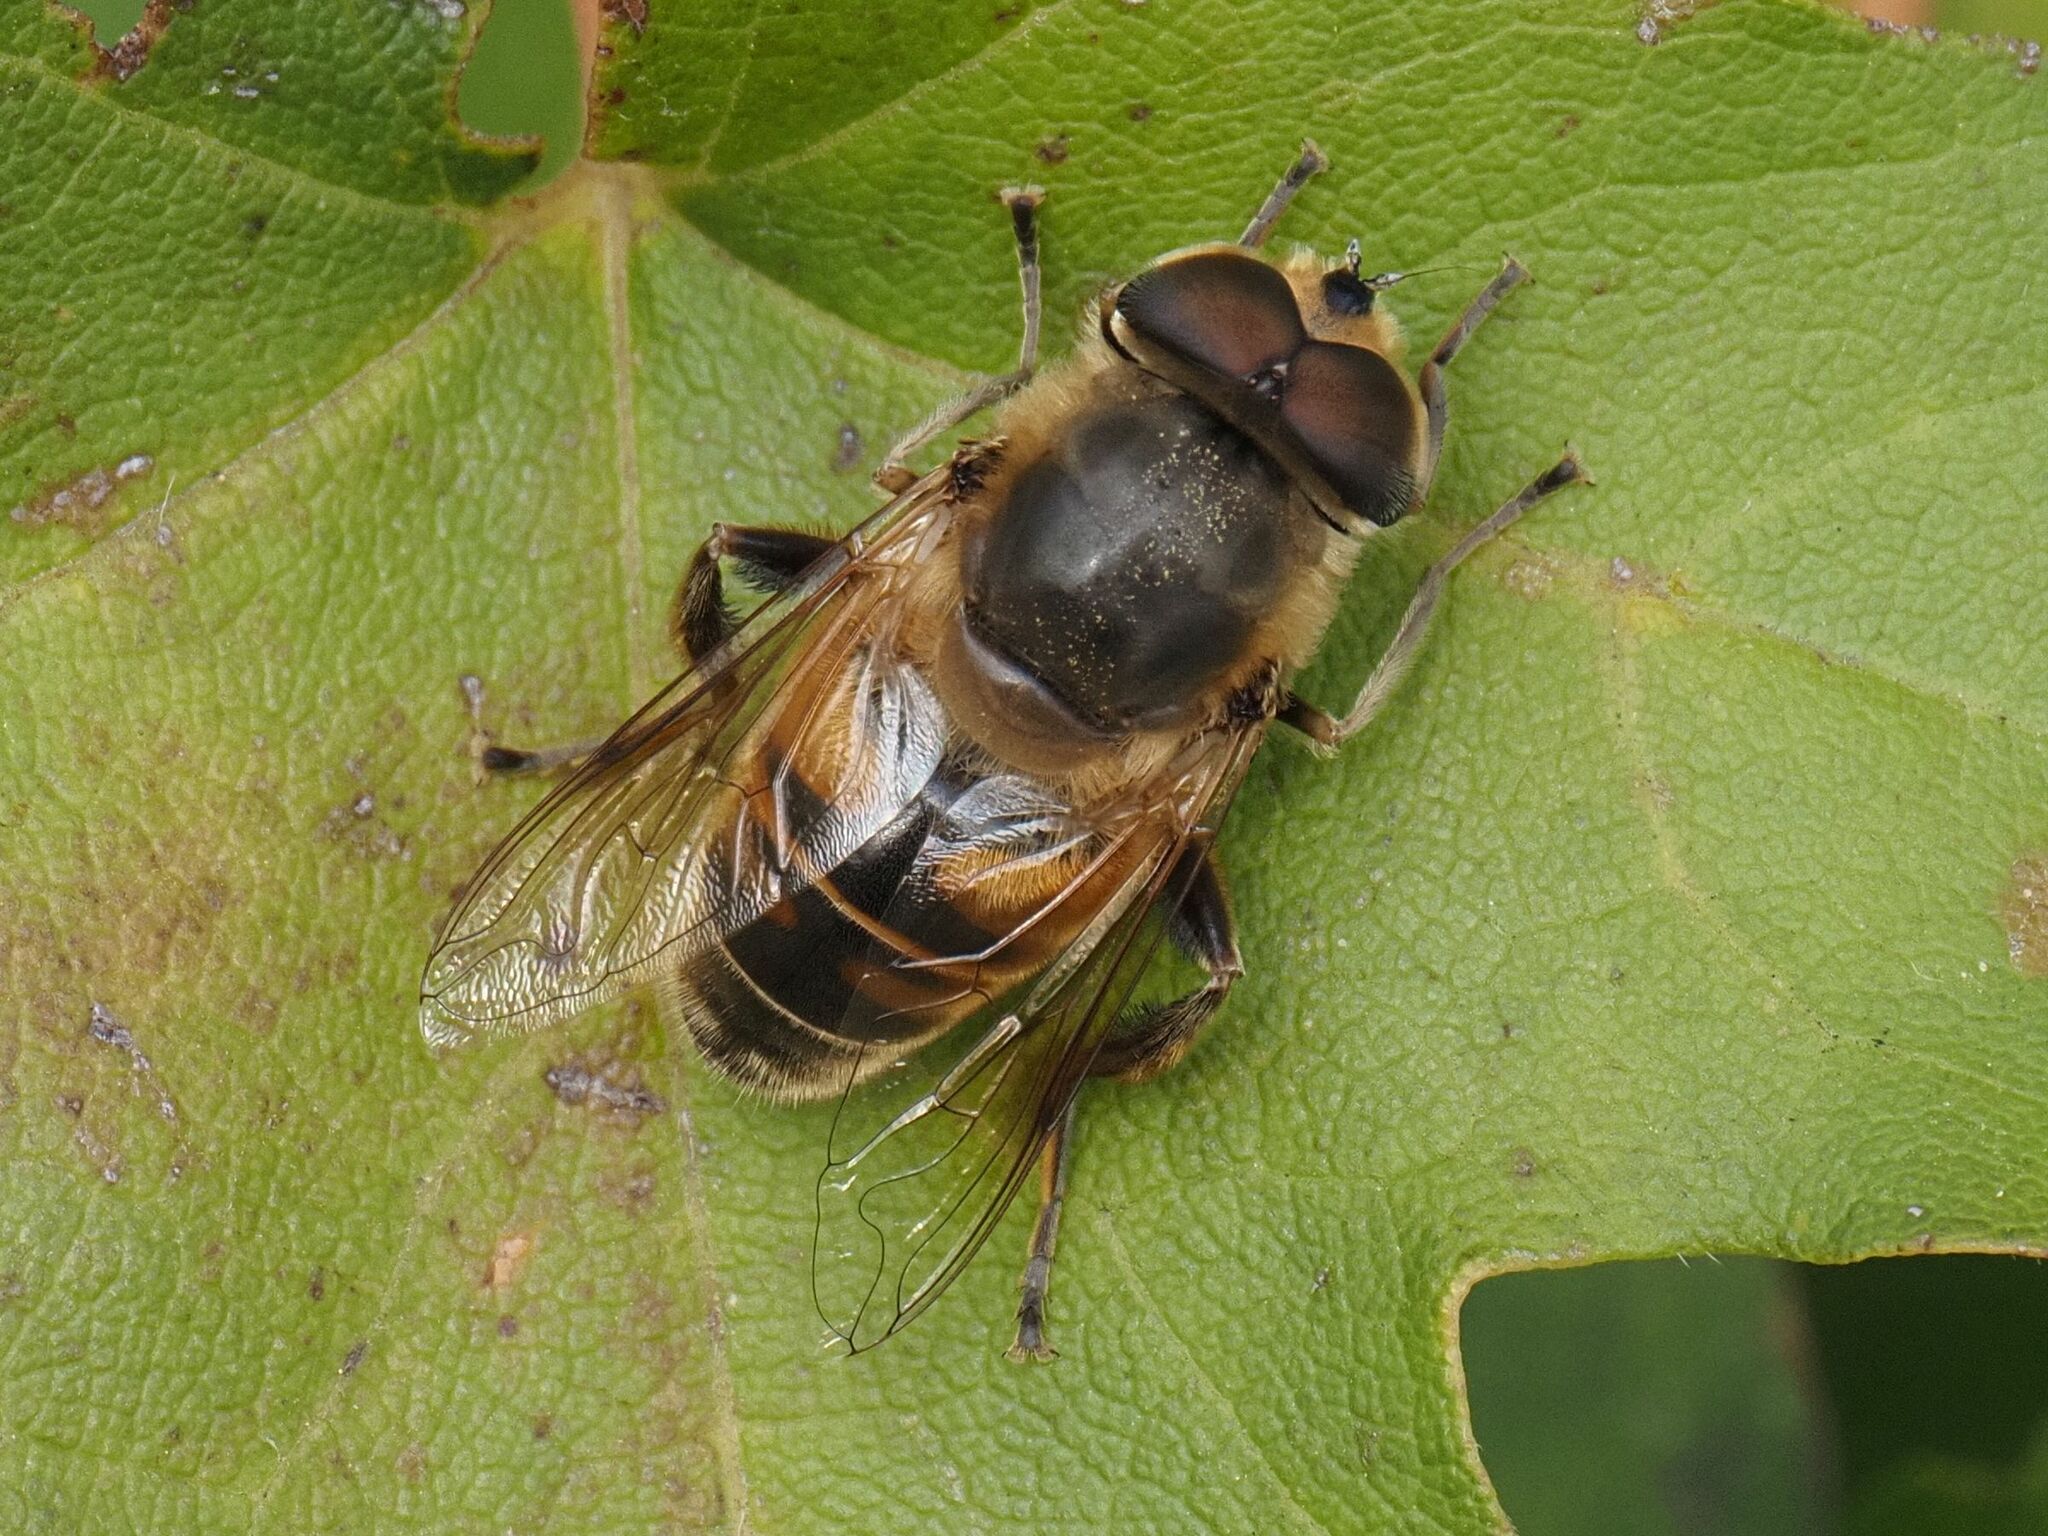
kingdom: Animalia
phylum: Arthropoda
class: Insecta
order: Diptera
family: Syrphidae
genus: Eristalis
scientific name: Eristalis tenax
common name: Drone fly
